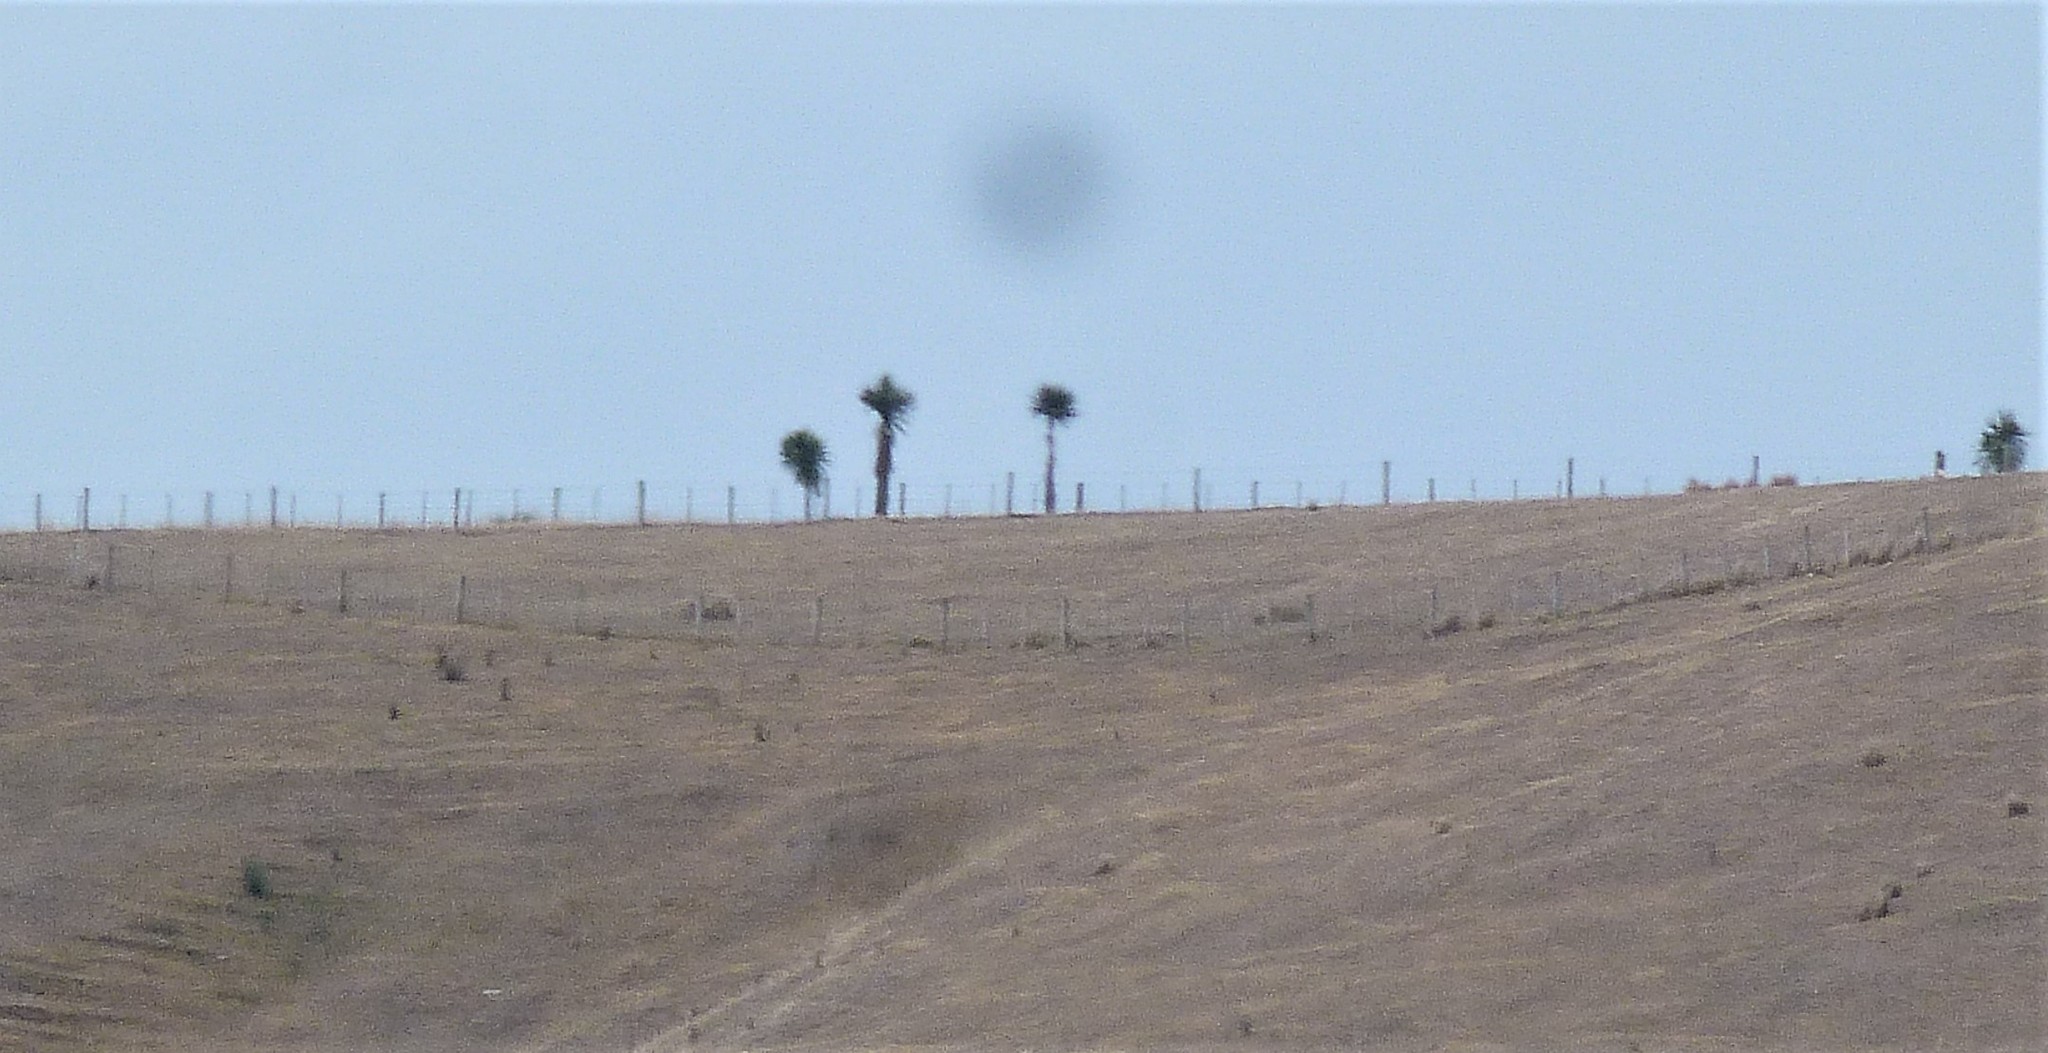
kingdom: Plantae
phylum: Tracheophyta
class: Liliopsida
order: Asparagales
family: Asparagaceae
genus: Cordyline
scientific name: Cordyline australis
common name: Cabbage-palm
